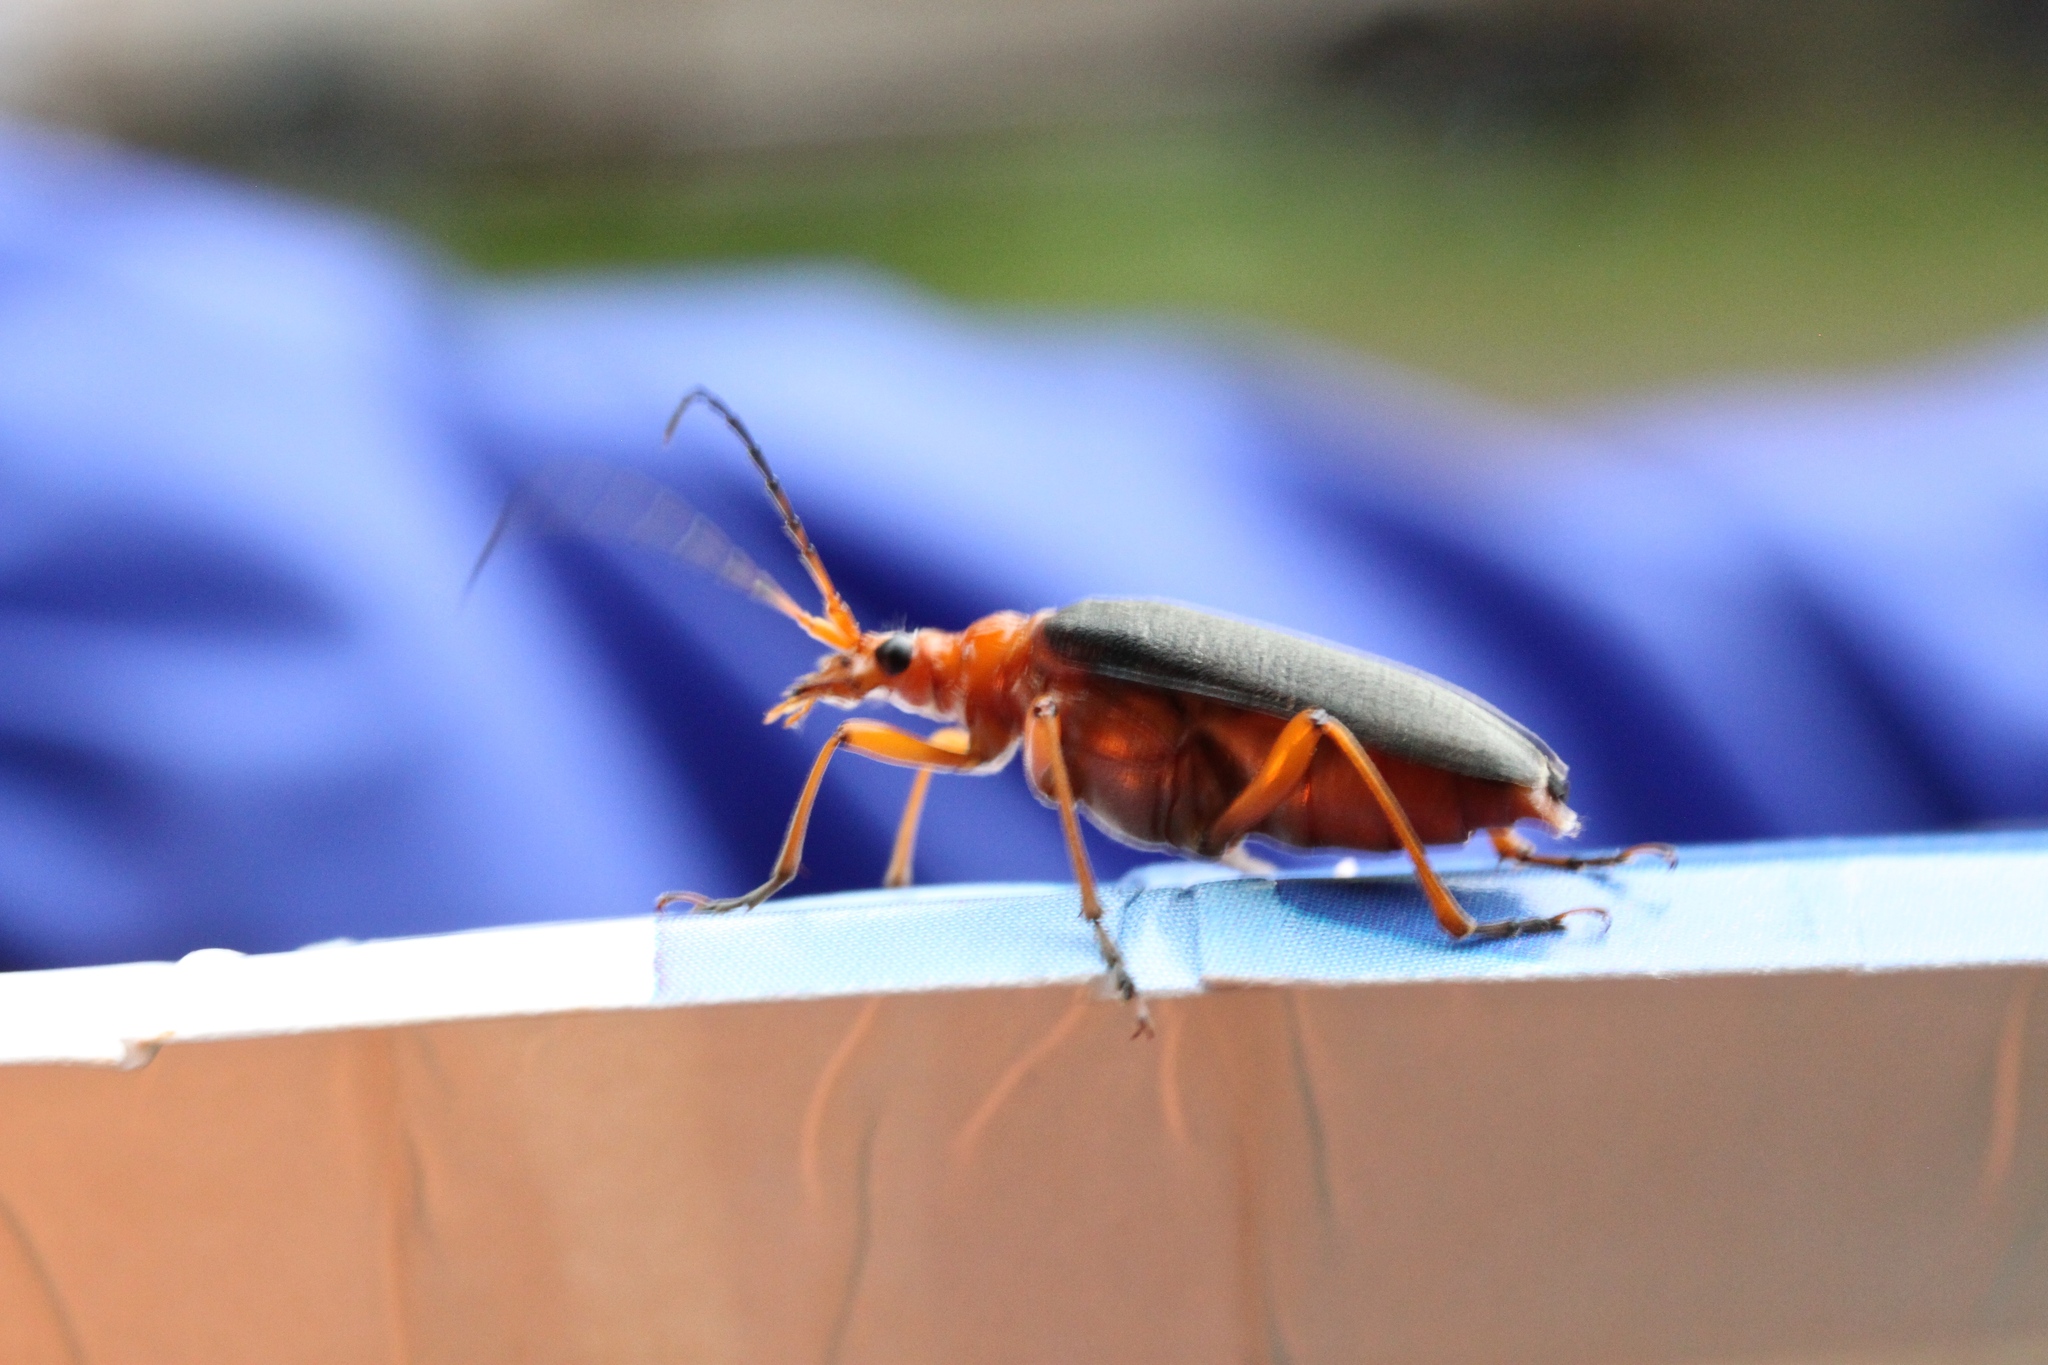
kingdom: Animalia
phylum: Arthropoda
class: Insecta
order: Coleoptera
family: Cerambycidae
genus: Stenocorus
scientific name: Stenocorus schaumii
